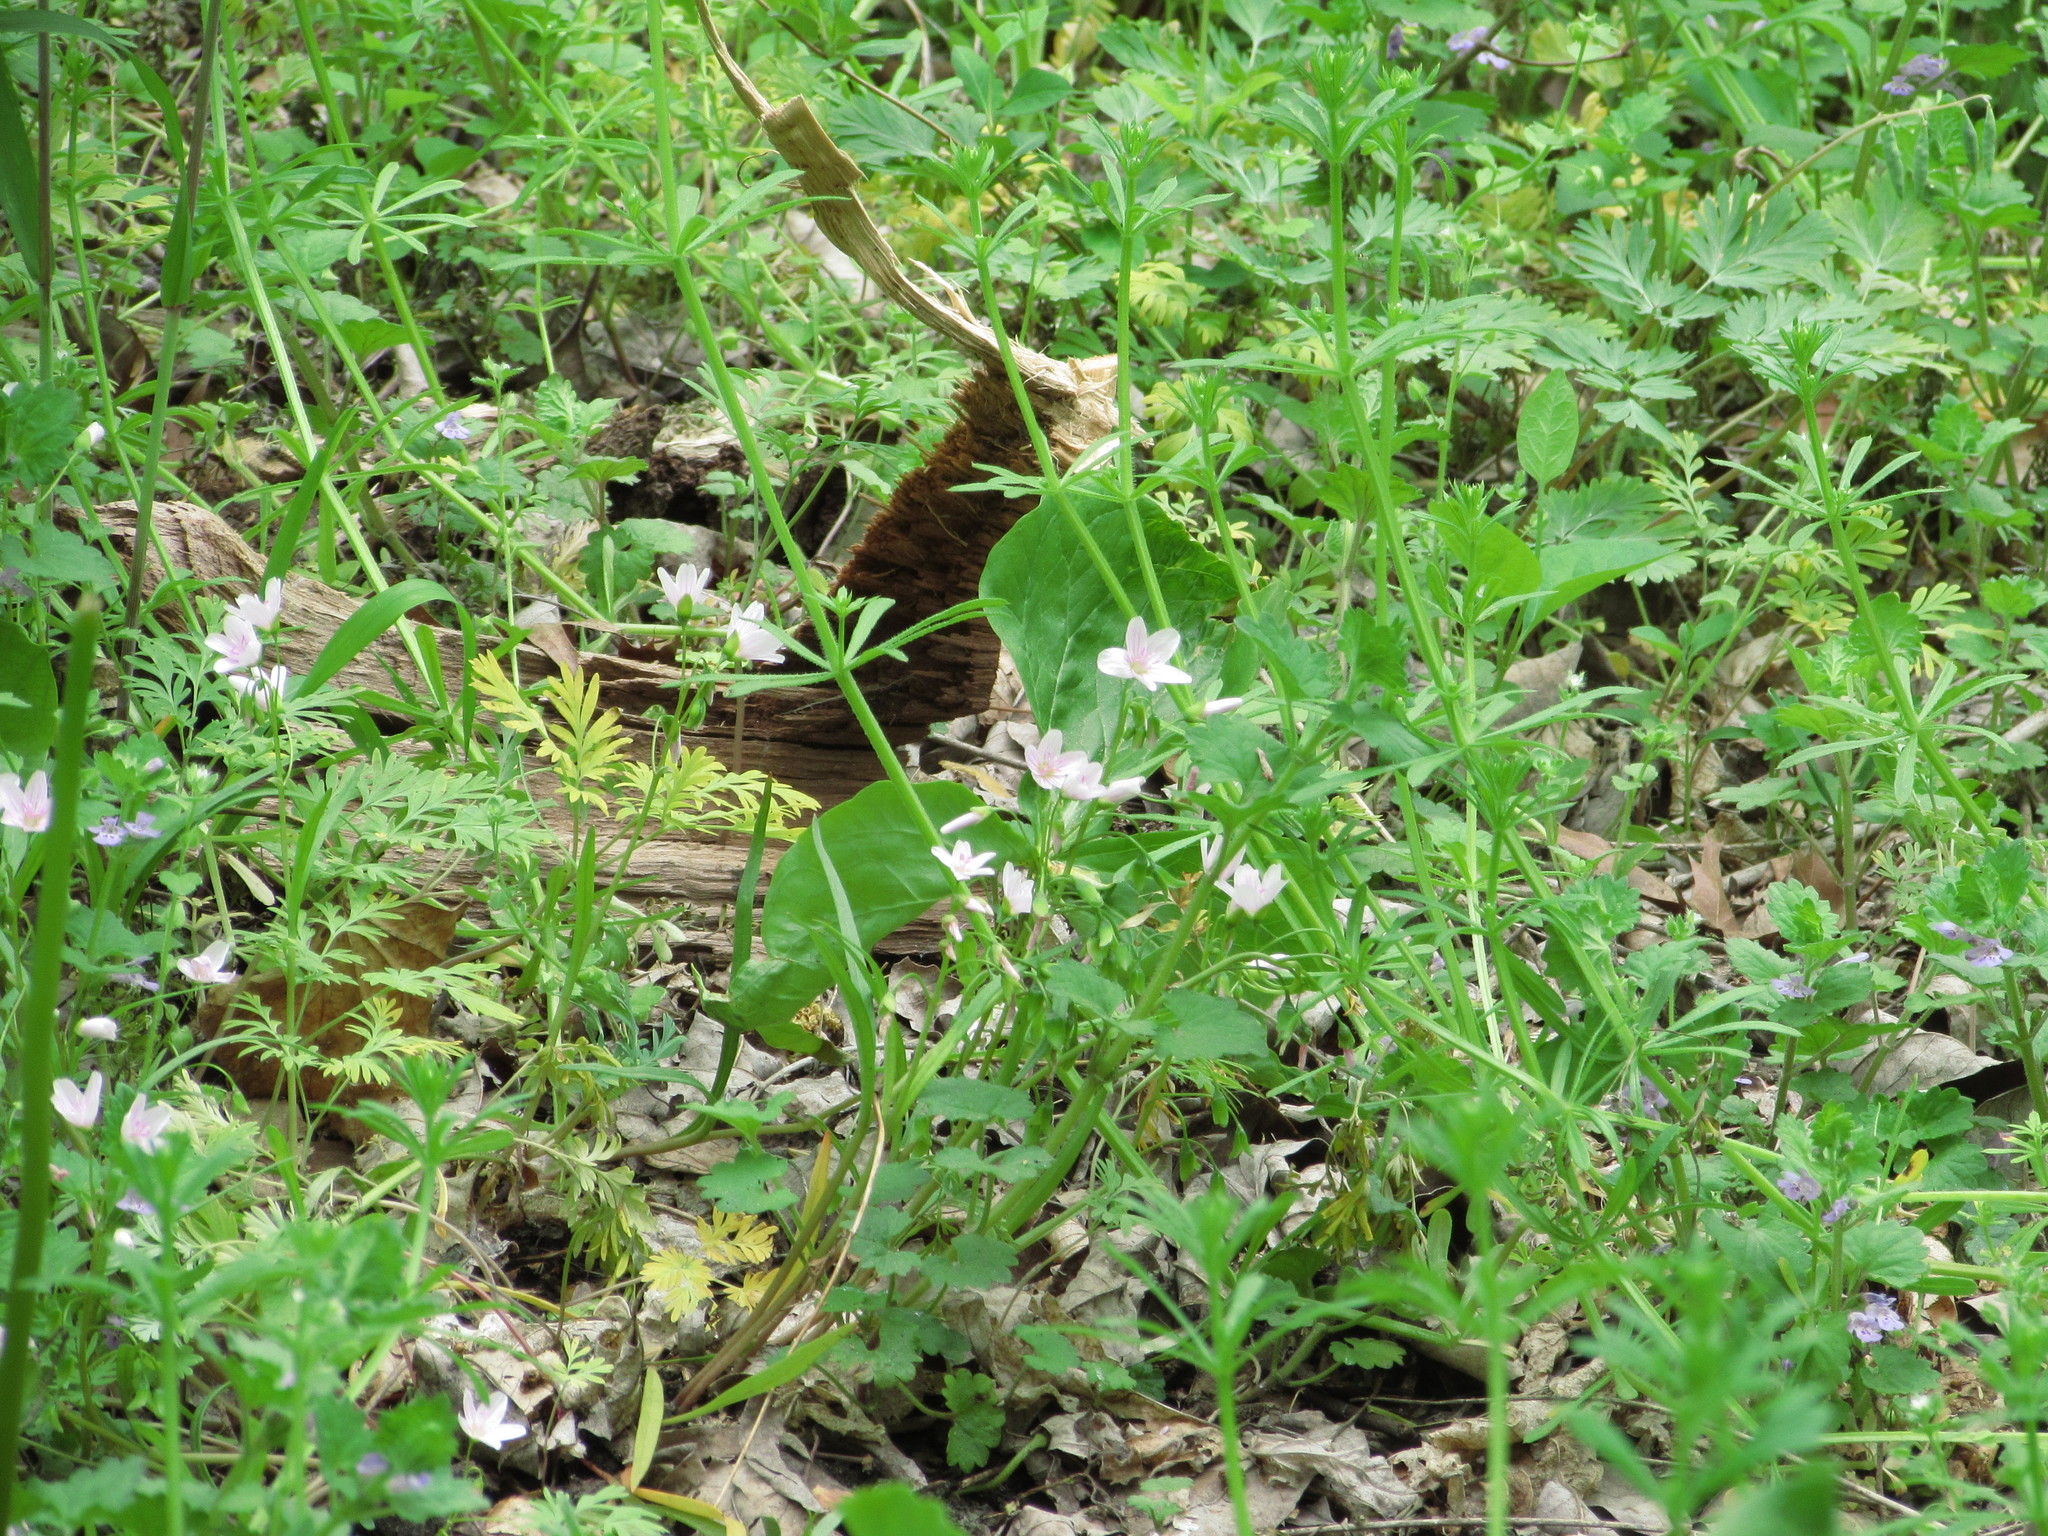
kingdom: Plantae
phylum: Tracheophyta
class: Magnoliopsida
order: Caryophyllales
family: Montiaceae
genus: Claytonia
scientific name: Claytonia virginica
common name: Virginia springbeauty
